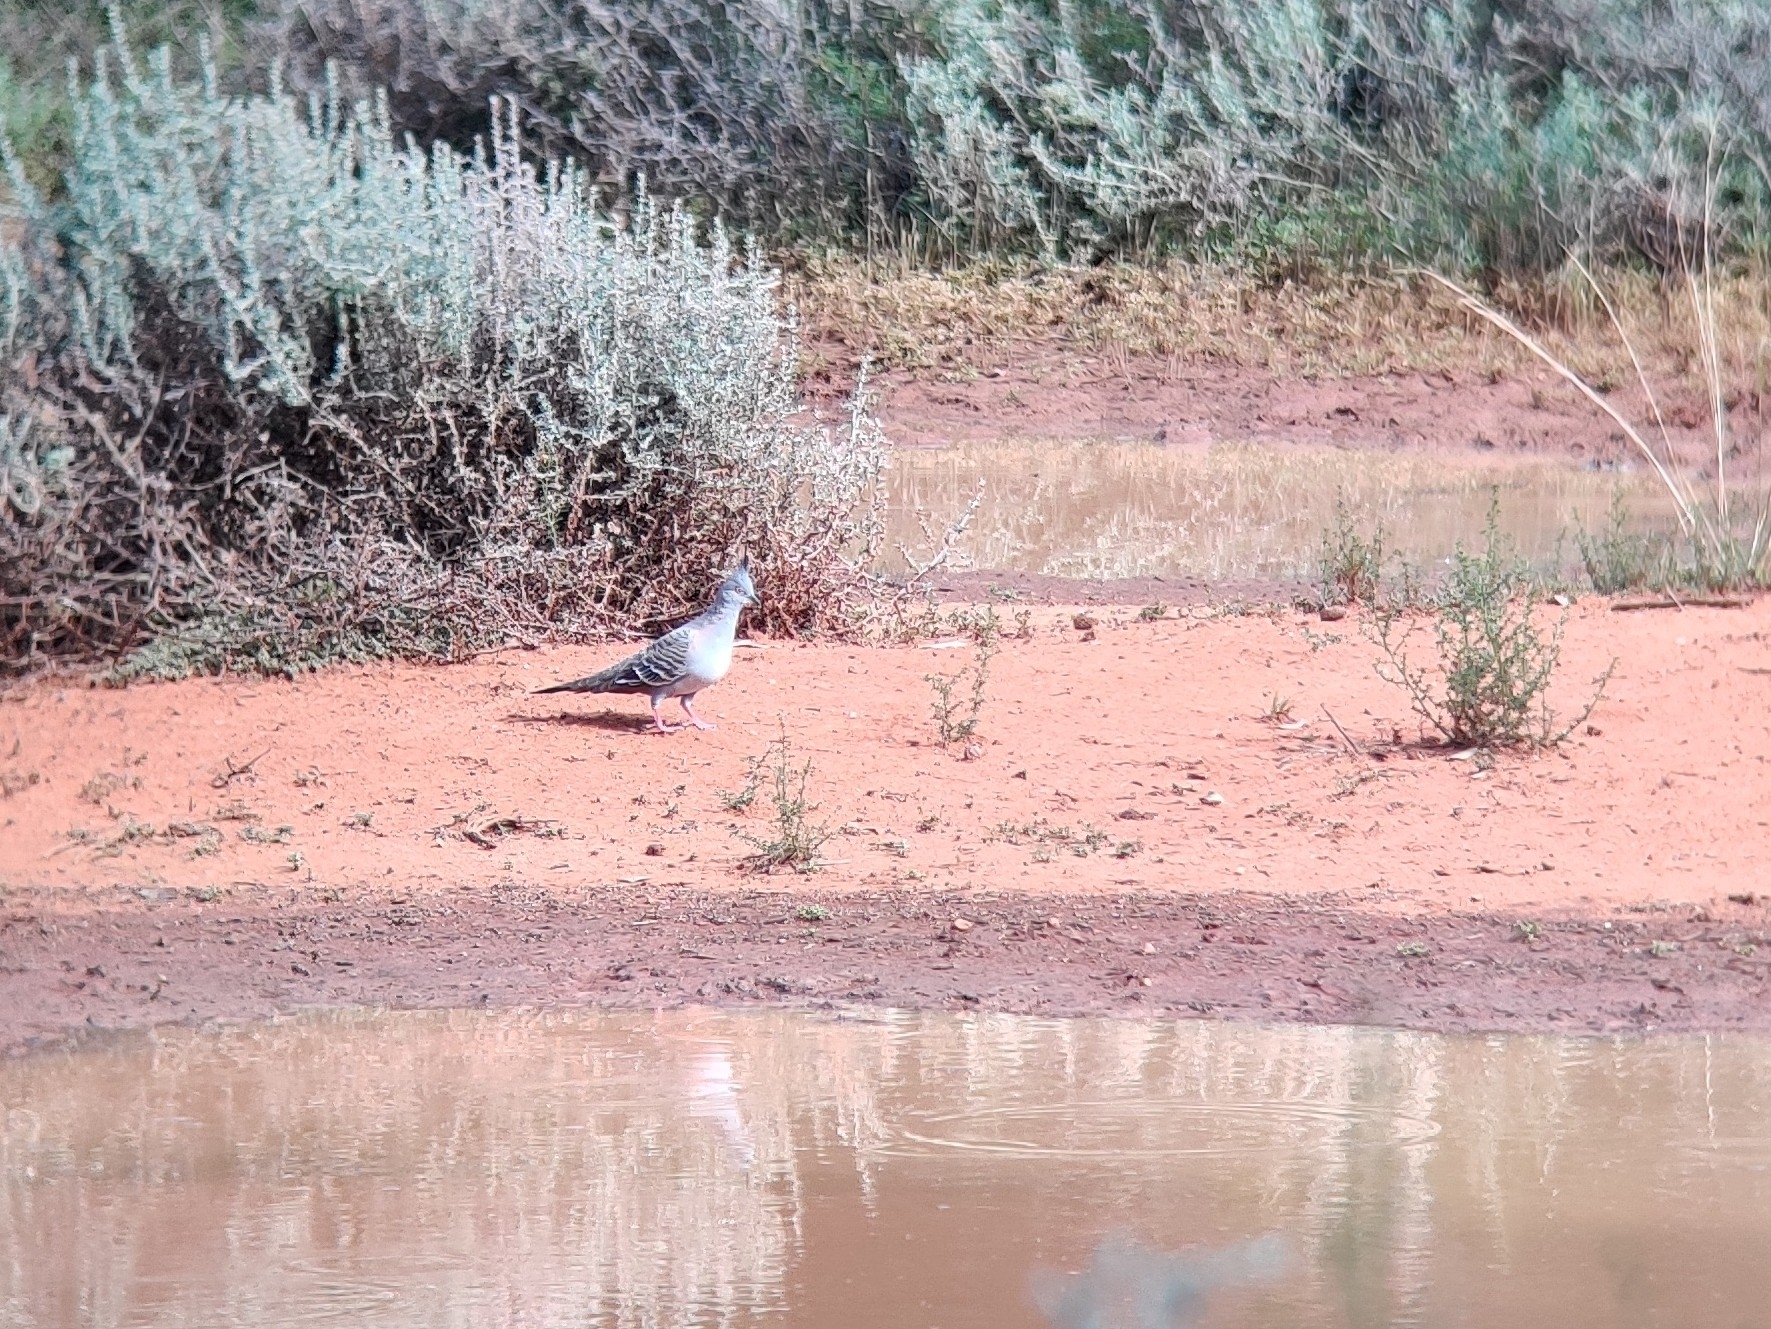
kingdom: Animalia
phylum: Chordata
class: Aves
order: Columbiformes
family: Columbidae
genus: Ocyphaps
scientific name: Ocyphaps lophotes
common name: Crested pigeon
